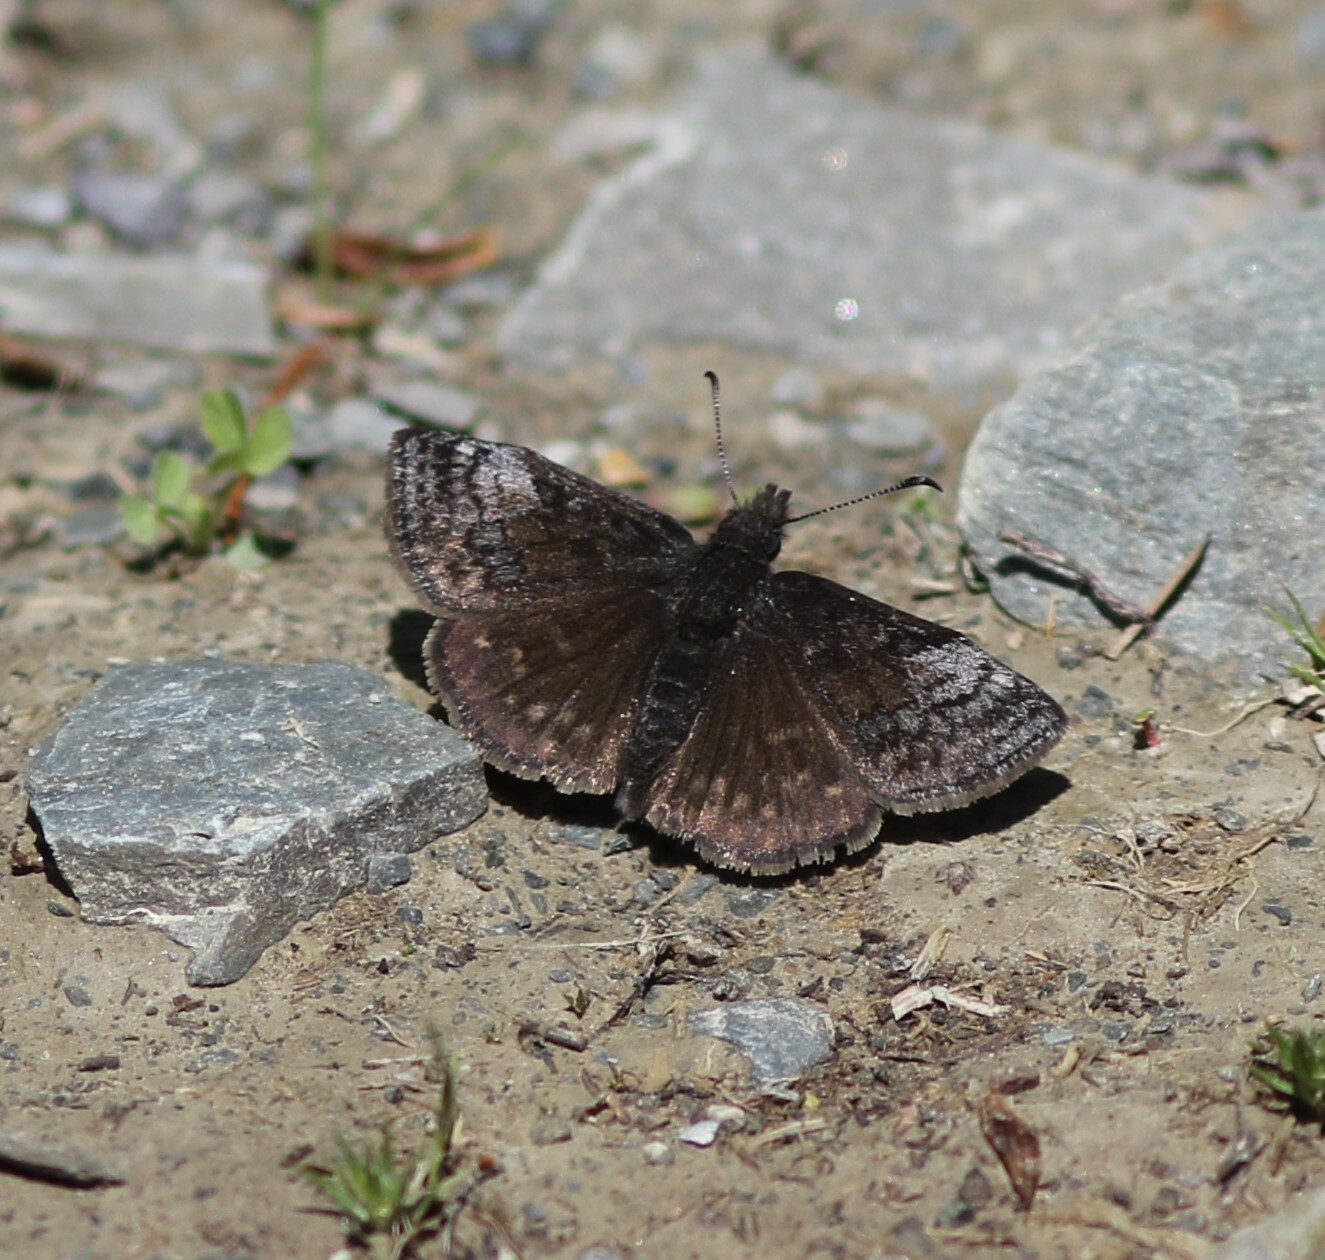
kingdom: Animalia
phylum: Arthropoda
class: Insecta
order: Lepidoptera
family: Hesperiidae
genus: Erynnis
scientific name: Erynnis icelus
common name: Dreamy duskywing
